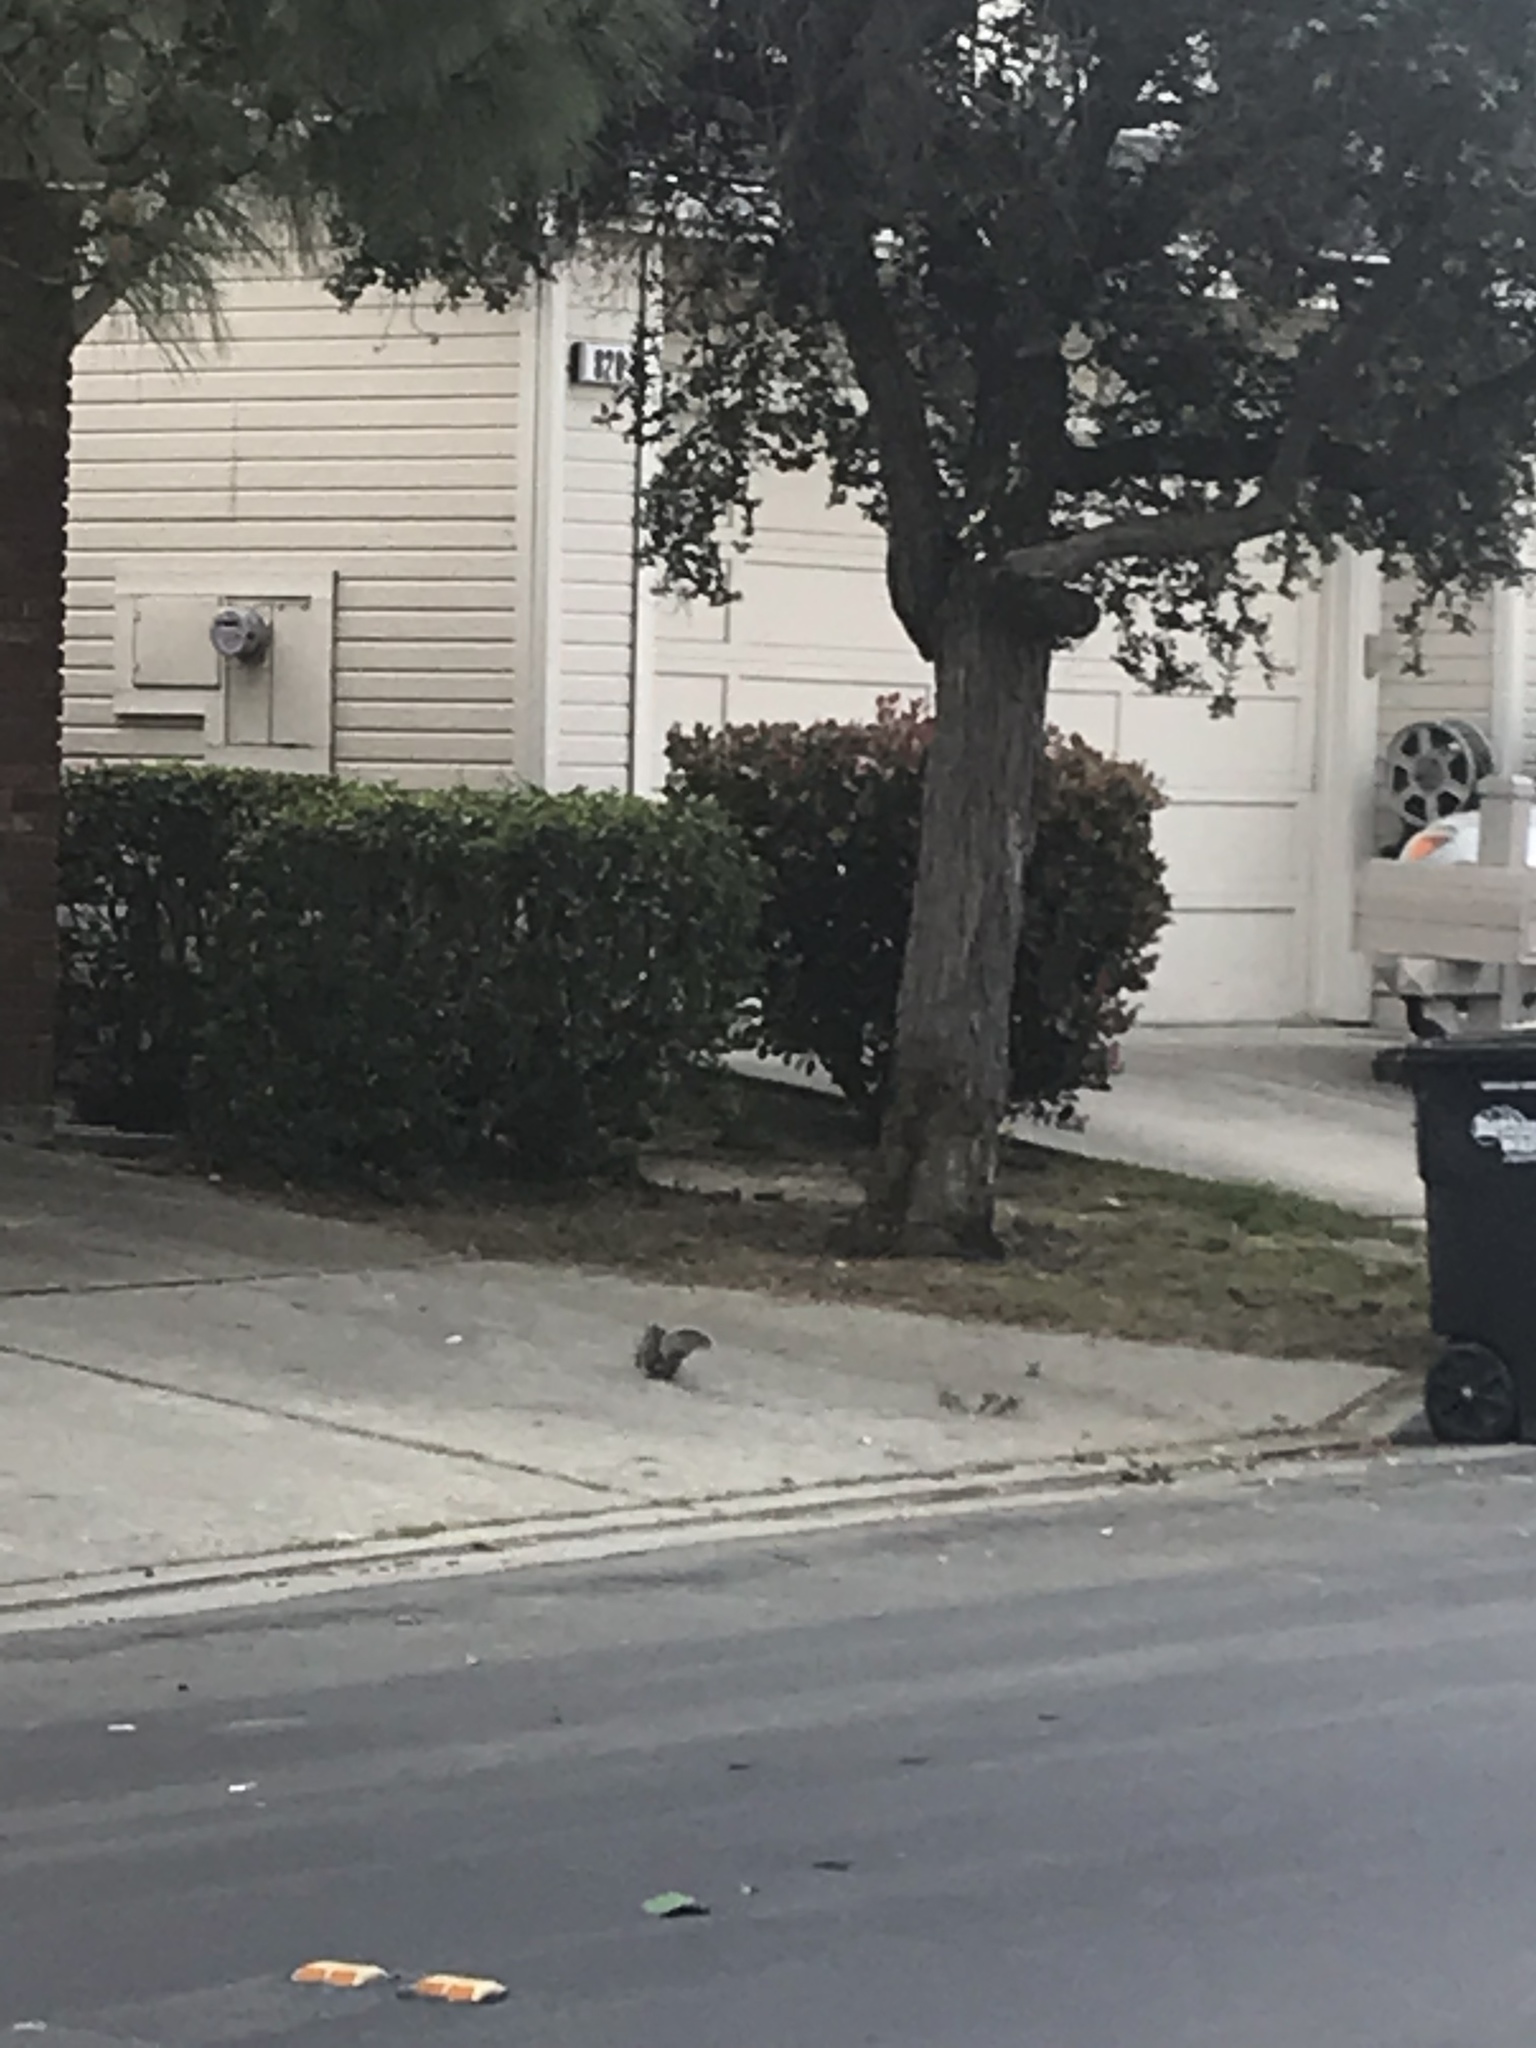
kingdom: Animalia
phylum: Chordata
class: Mammalia
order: Rodentia
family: Sciuridae
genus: Sciurus
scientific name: Sciurus carolinensis
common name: Eastern gray squirrel
